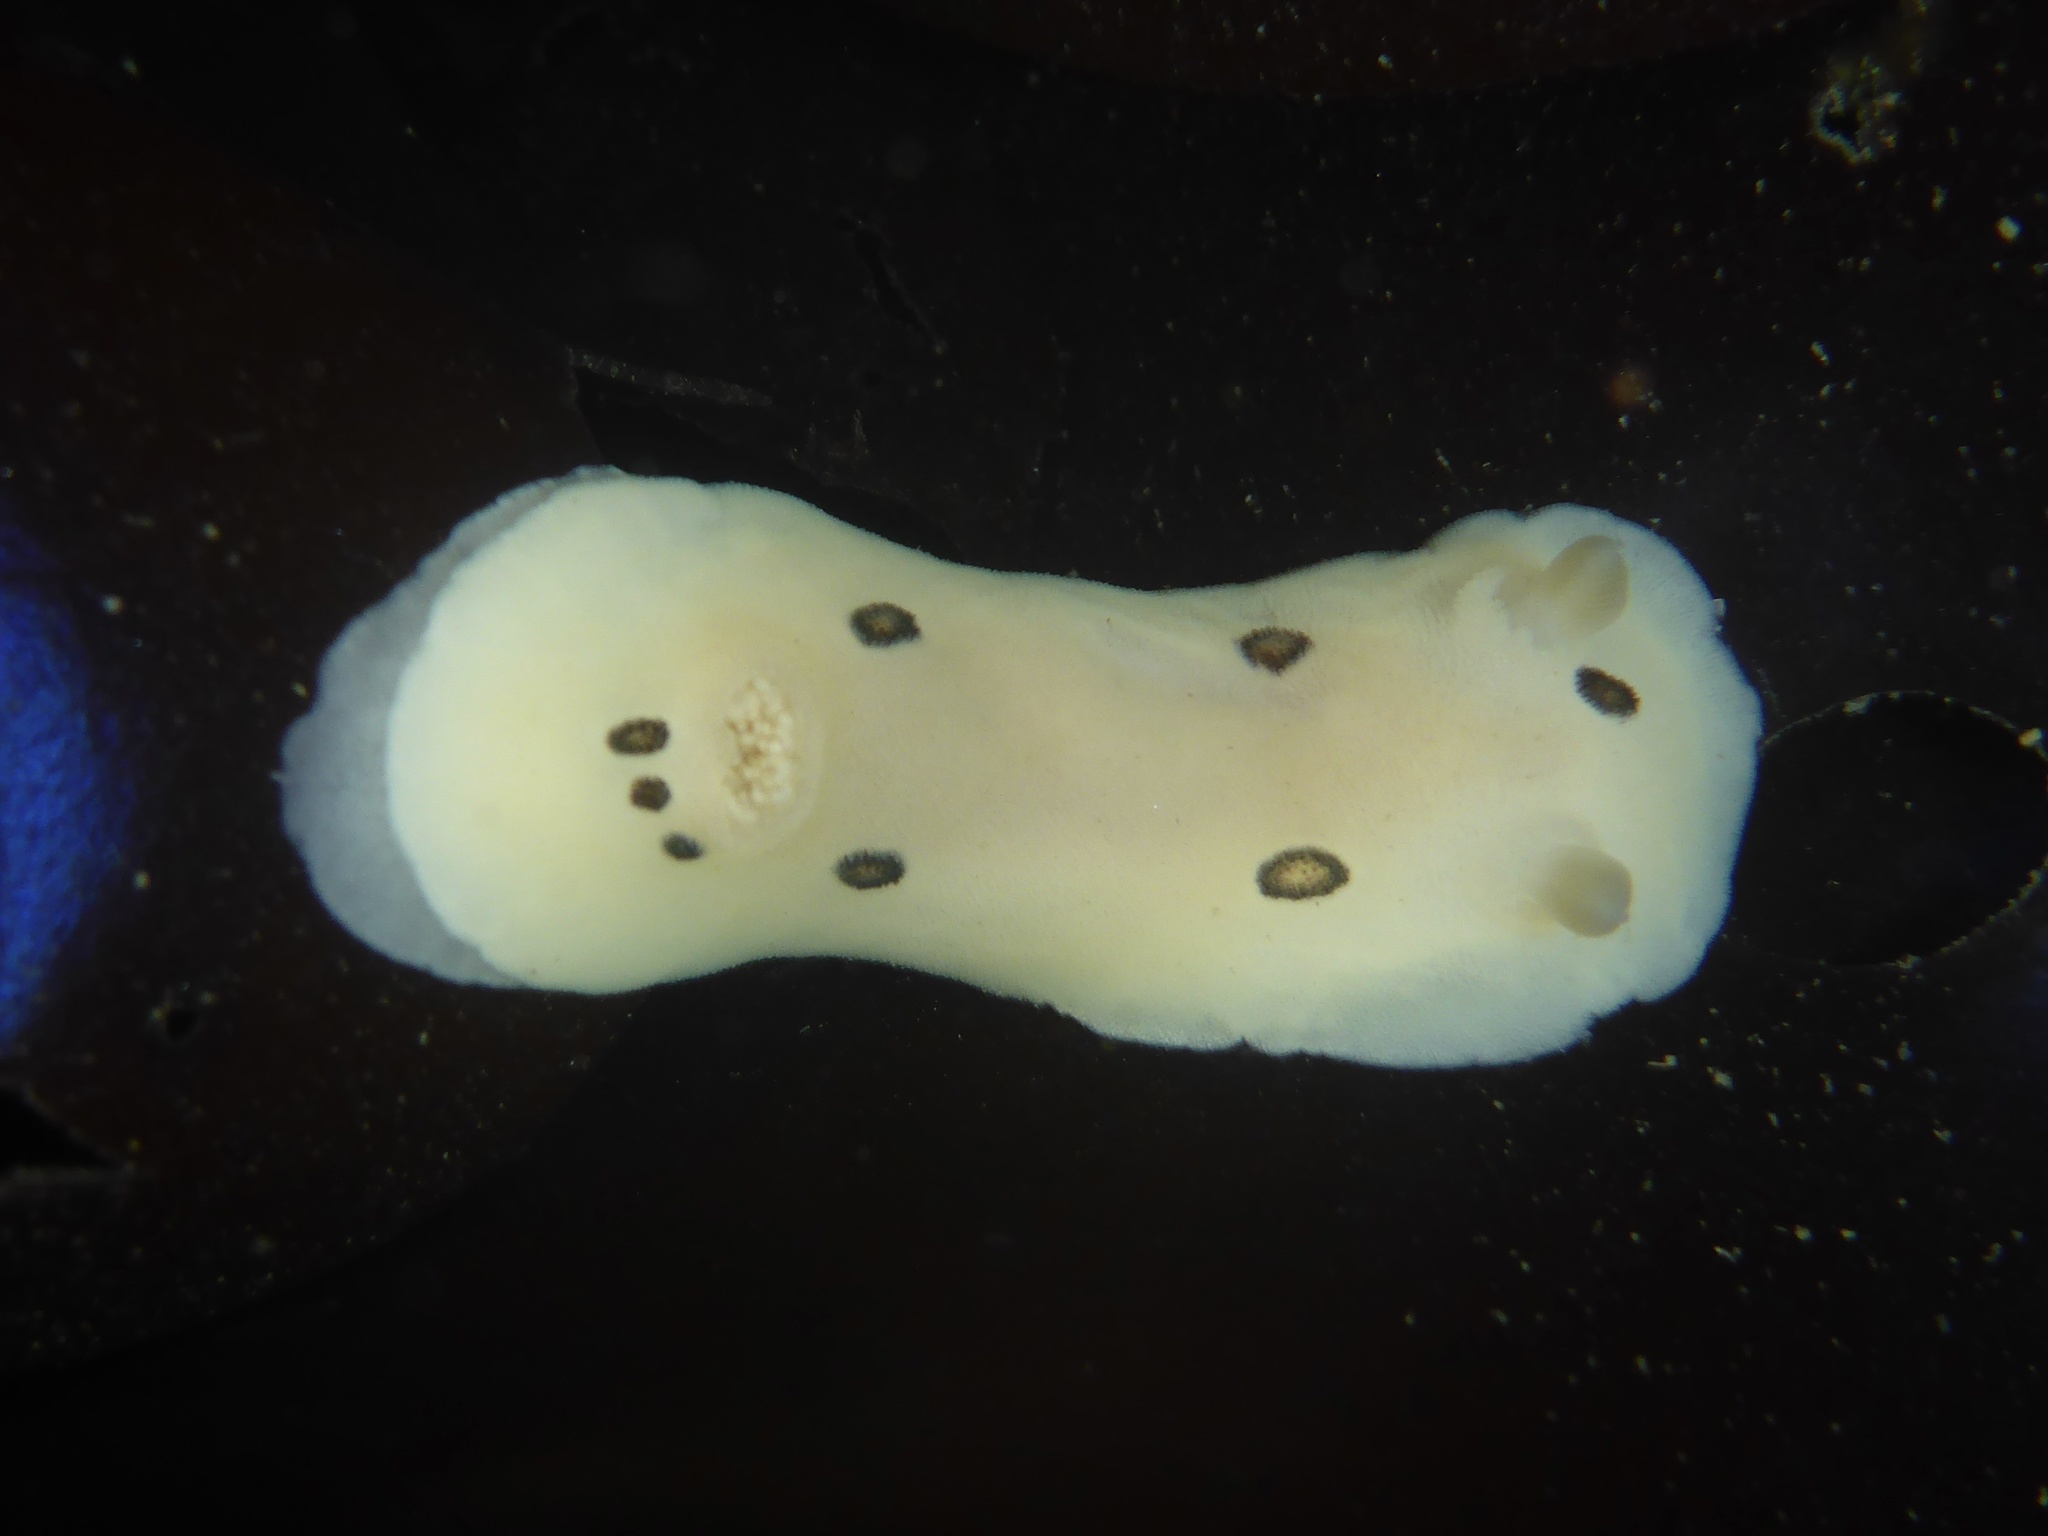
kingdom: Animalia
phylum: Mollusca
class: Gastropoda
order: Nudibranchia
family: Discodorididae
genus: Diaulula
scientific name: Diaulula sandiegensis
